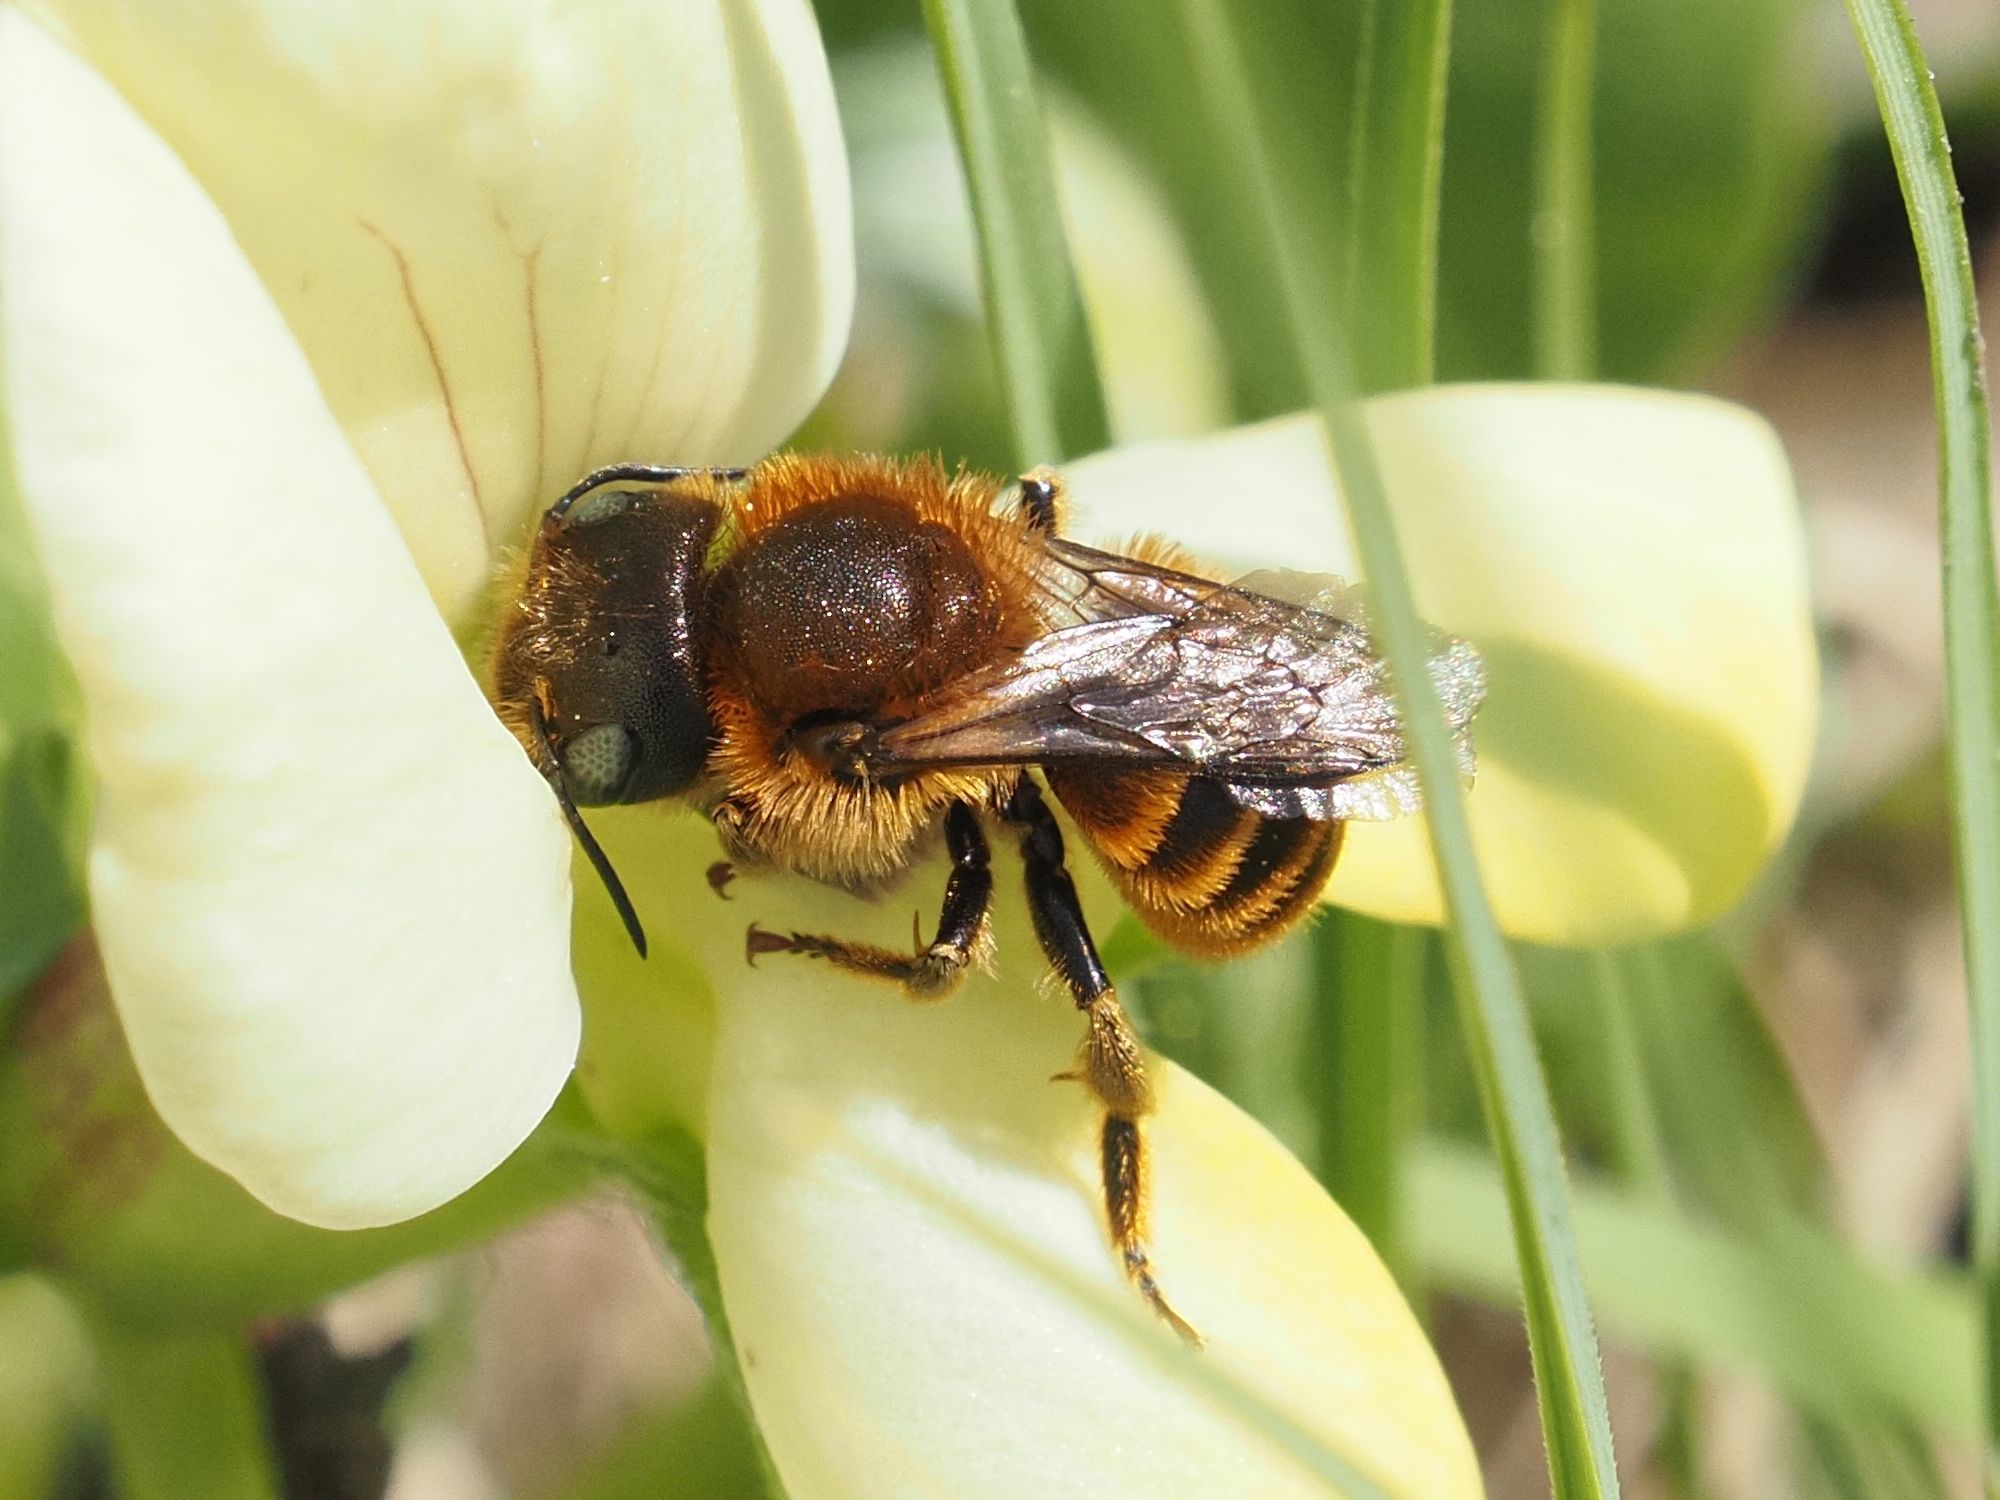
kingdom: Animalia
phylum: Arthropoda
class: Insecta
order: Hymenoptera
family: Megachilidae
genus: Osmia
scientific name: Osmia aurulenta
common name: Gold-fringed mason bee
